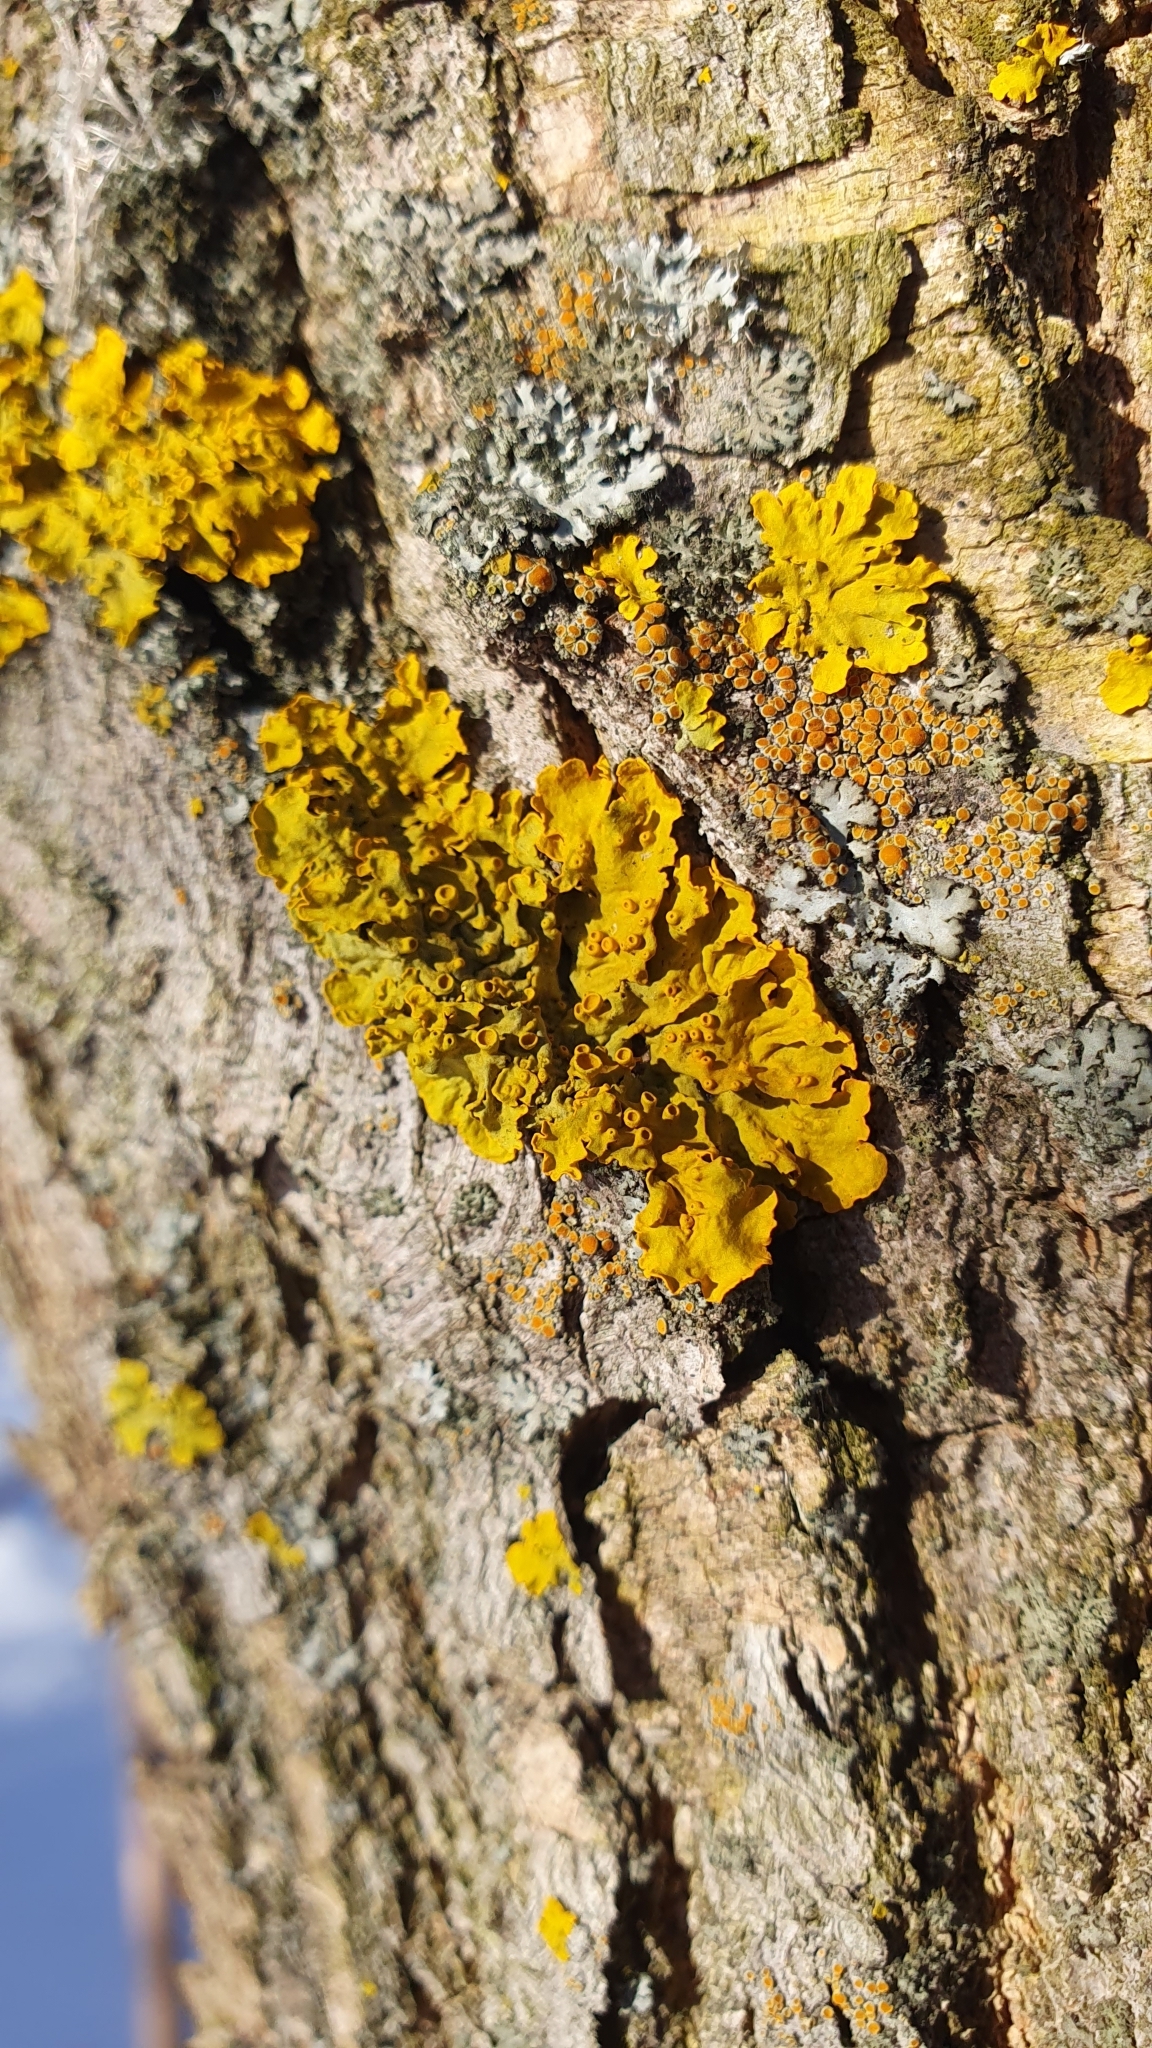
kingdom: Fungi
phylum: Ascomycota
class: Lecanoromycetes
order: Teloschistales
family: Teloschistaceae
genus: Xanthoria
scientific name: Xanthoria parietina
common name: Common orange lichen
